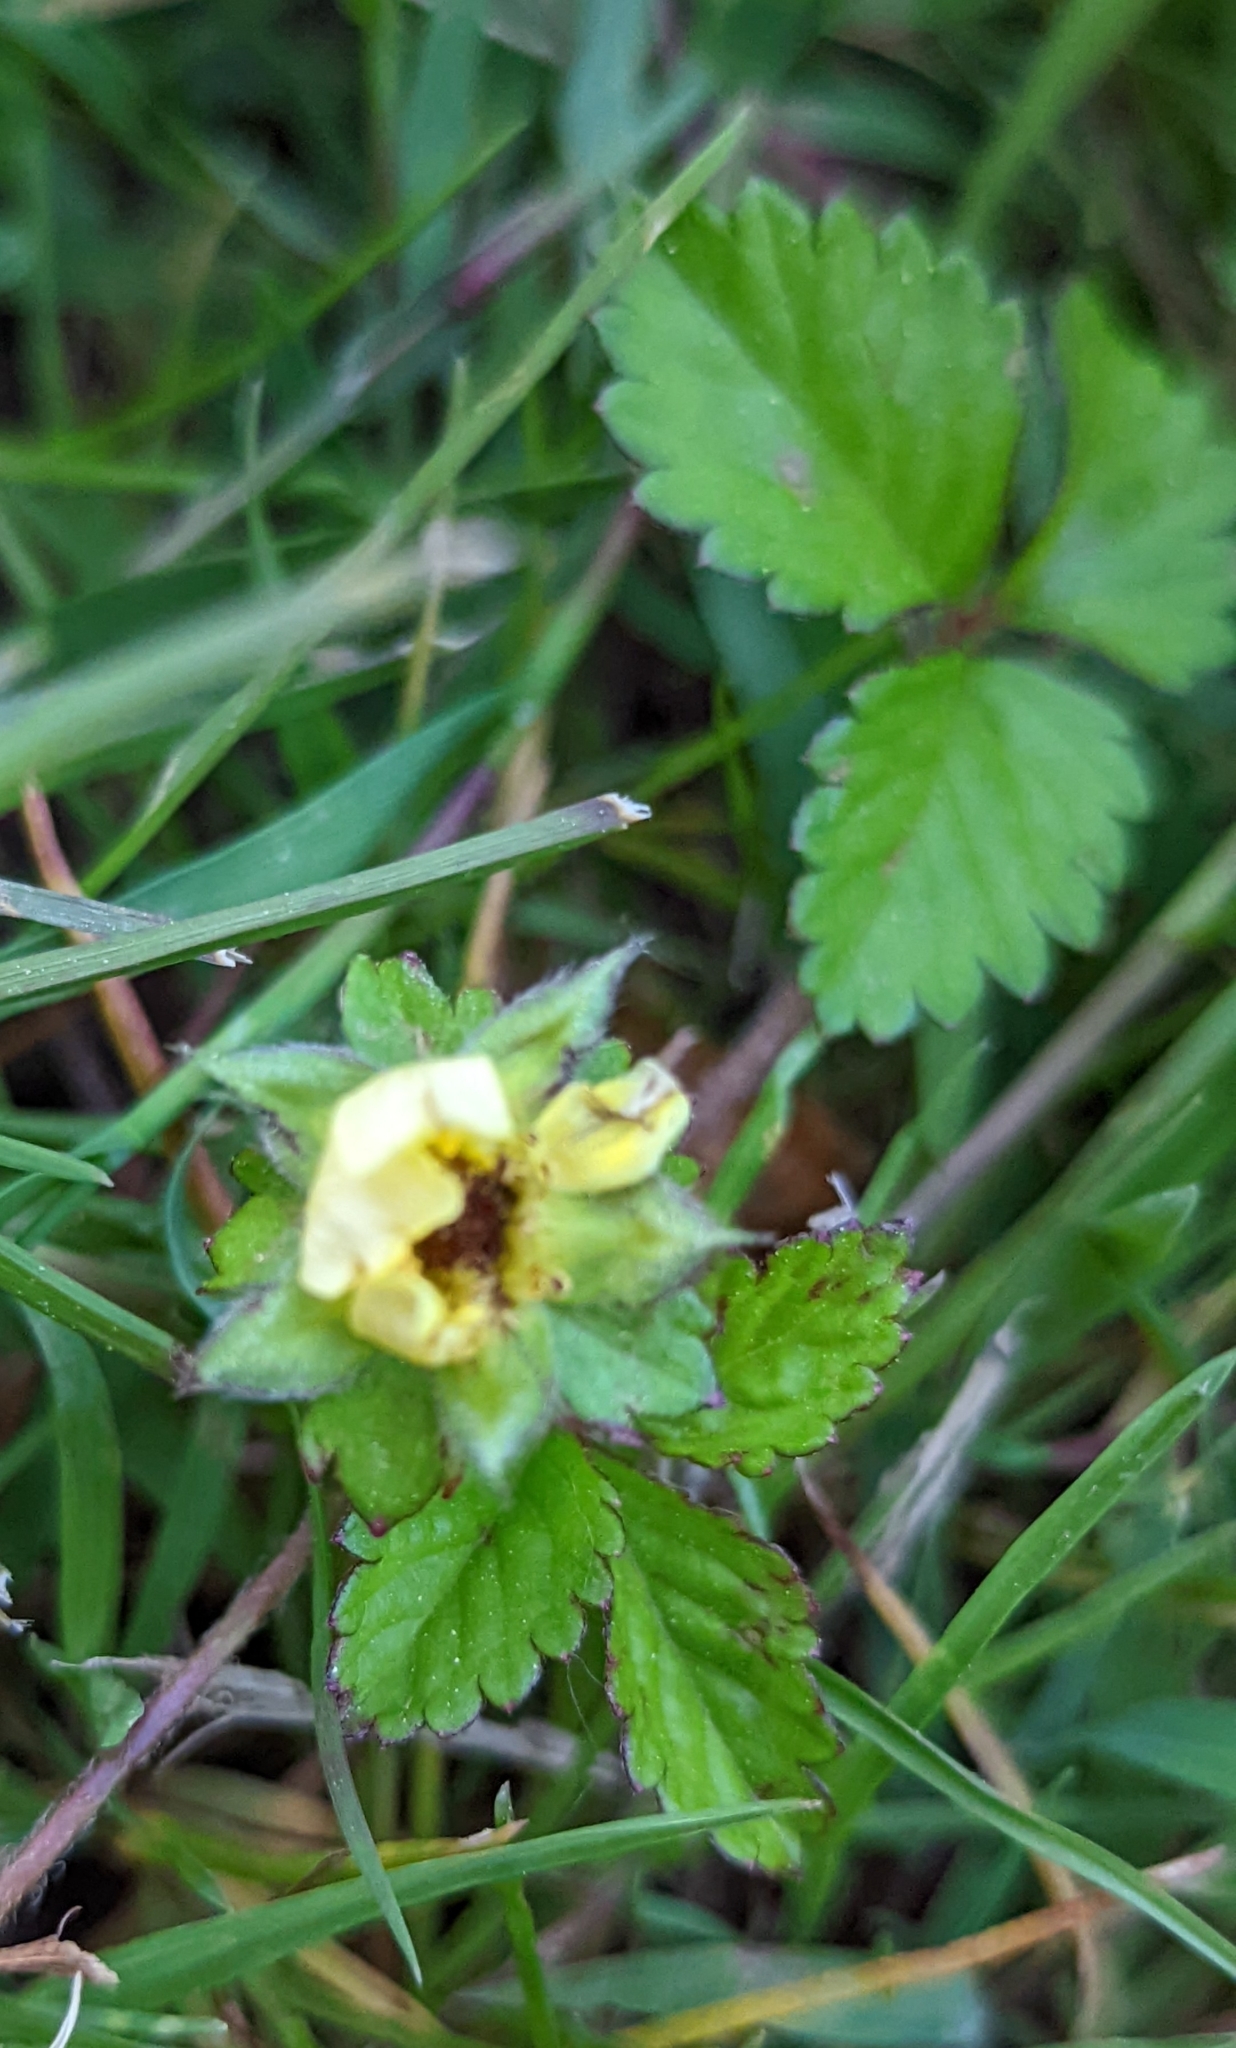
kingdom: Plantae
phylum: Tracheophyta
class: Magnoliopsida
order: Rosales
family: Rosaceae
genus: Potentilla
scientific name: Potentilla indica
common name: Yellow-flowered strawberry
